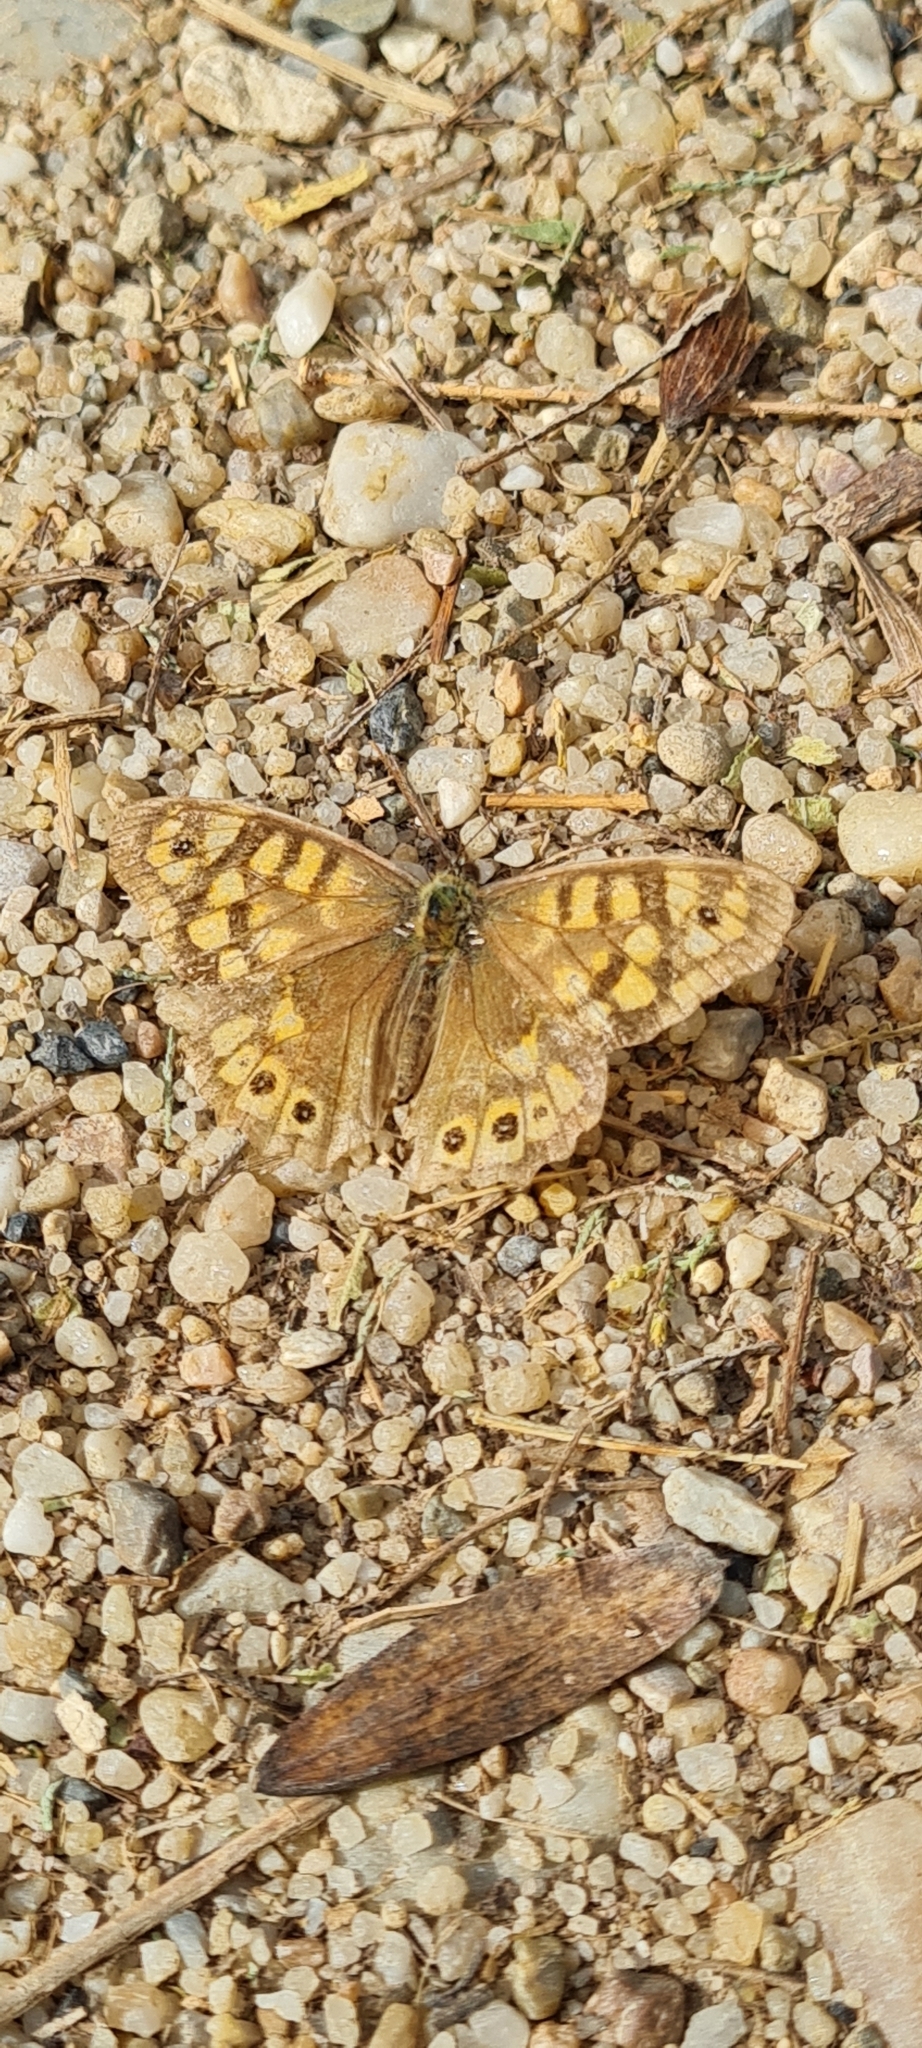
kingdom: Animalia
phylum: Arthropoda
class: Insecta
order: Lepidoptera
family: Nymphalidae
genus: Pararge
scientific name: Pararge aegeria
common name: Speckled wood
